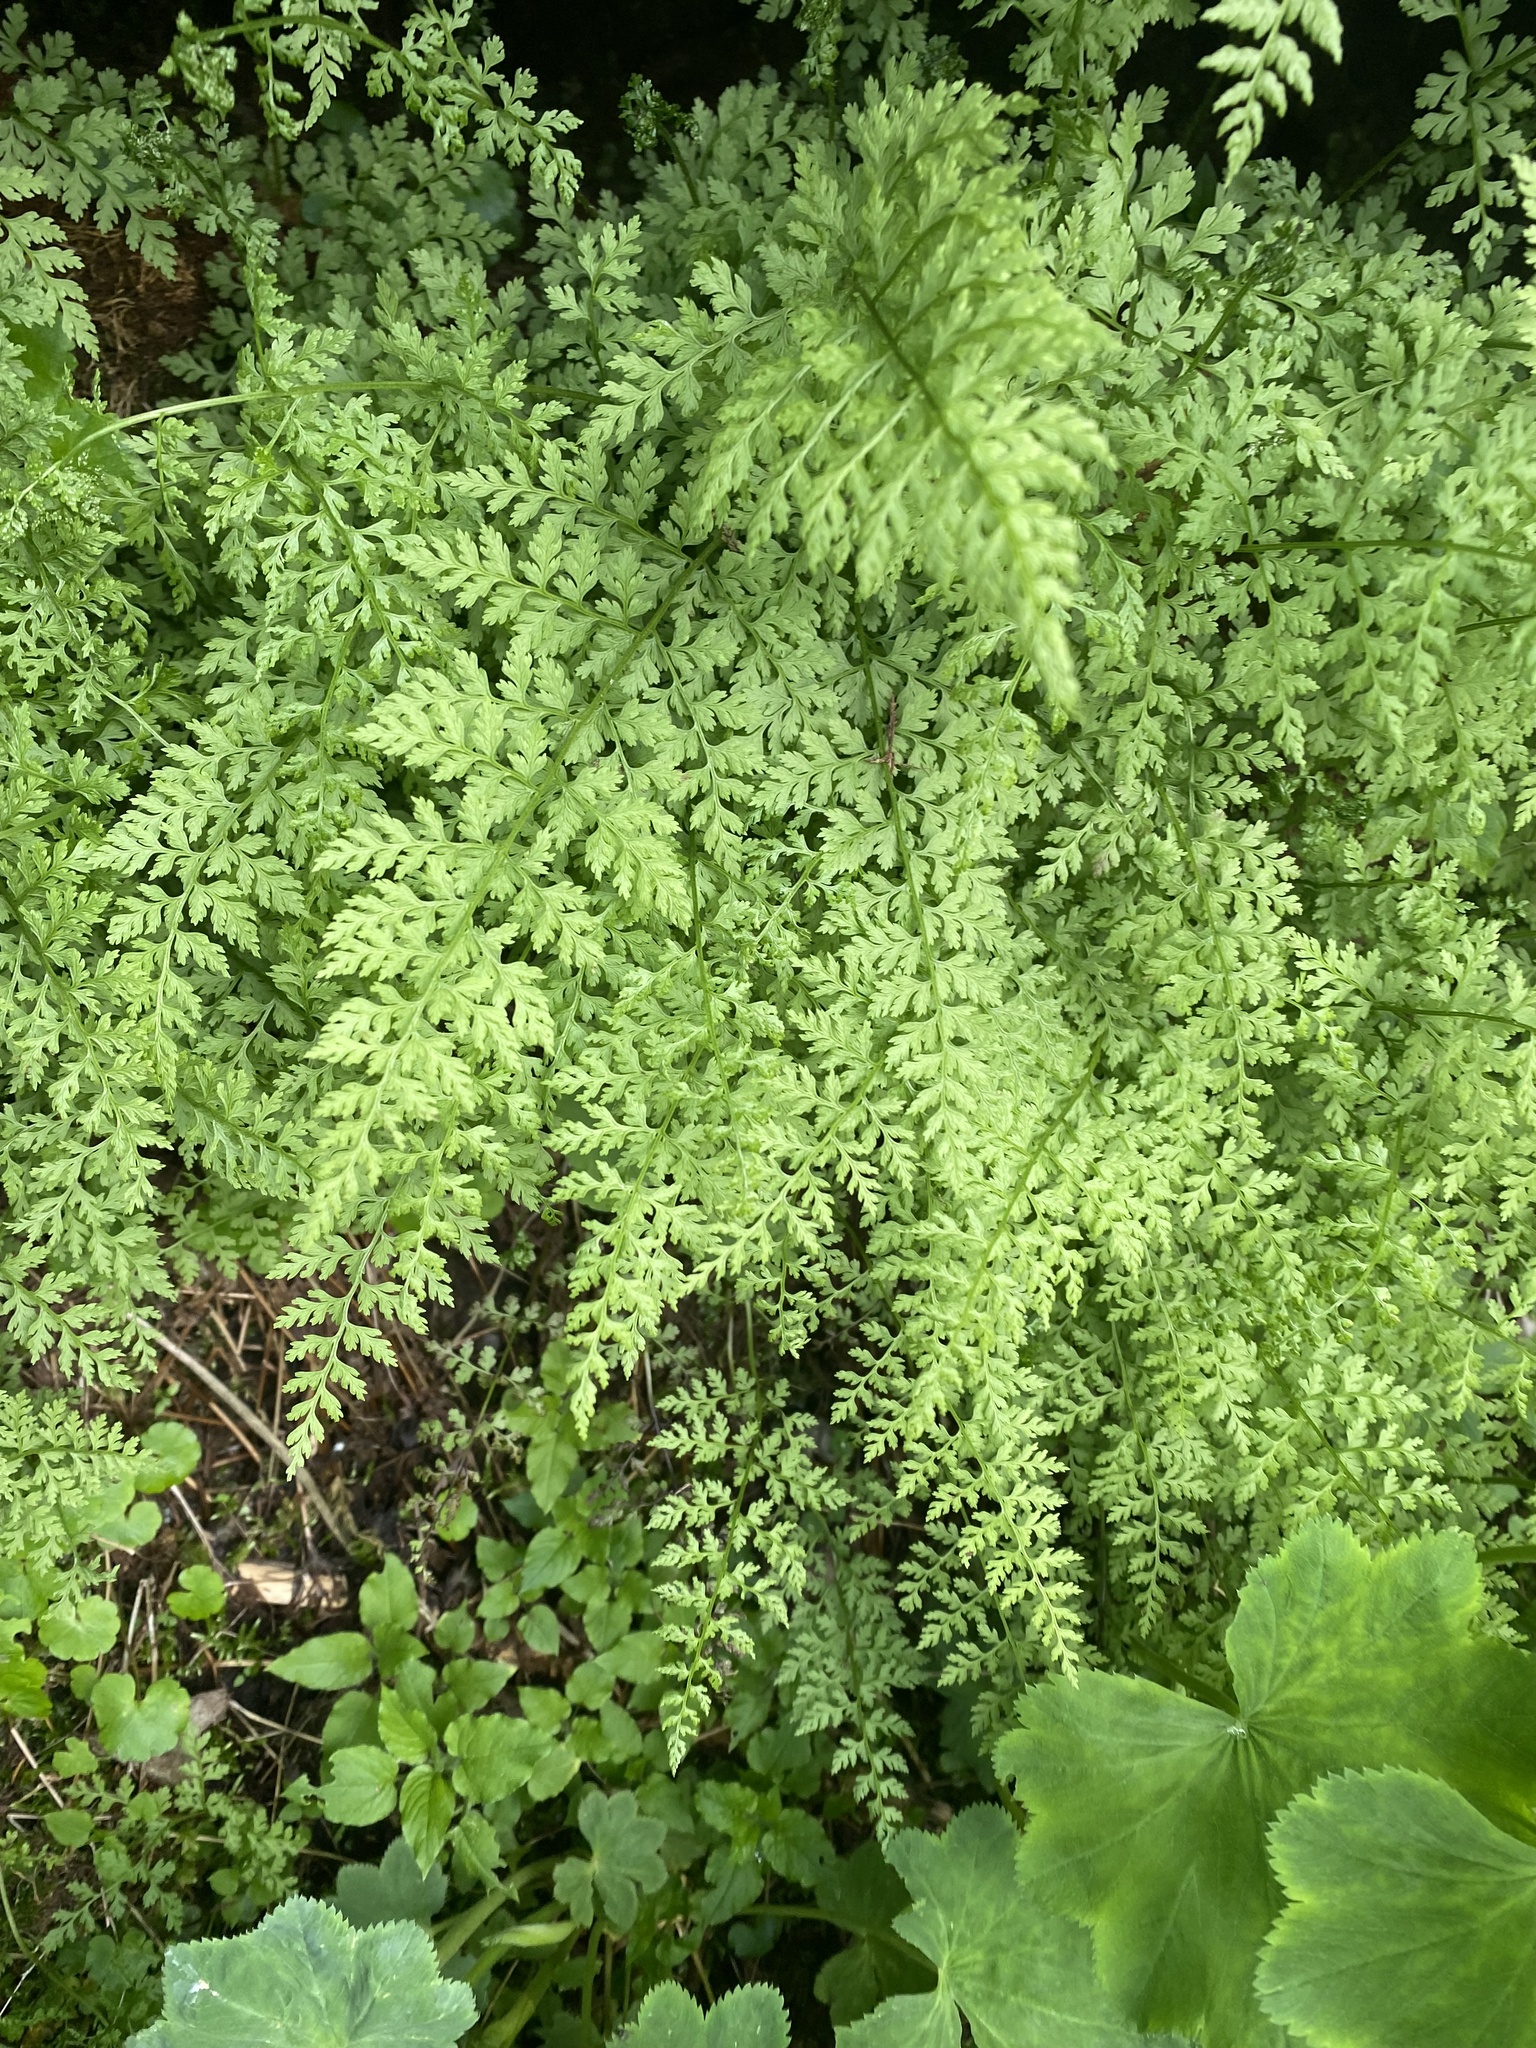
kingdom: Plantae
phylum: Tracheophyta
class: Polypodiopsida
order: Polypodiales
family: Cystopteridaceae
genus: Cystopteris
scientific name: Cystopteris fragilis
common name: Brittle bladder fern
